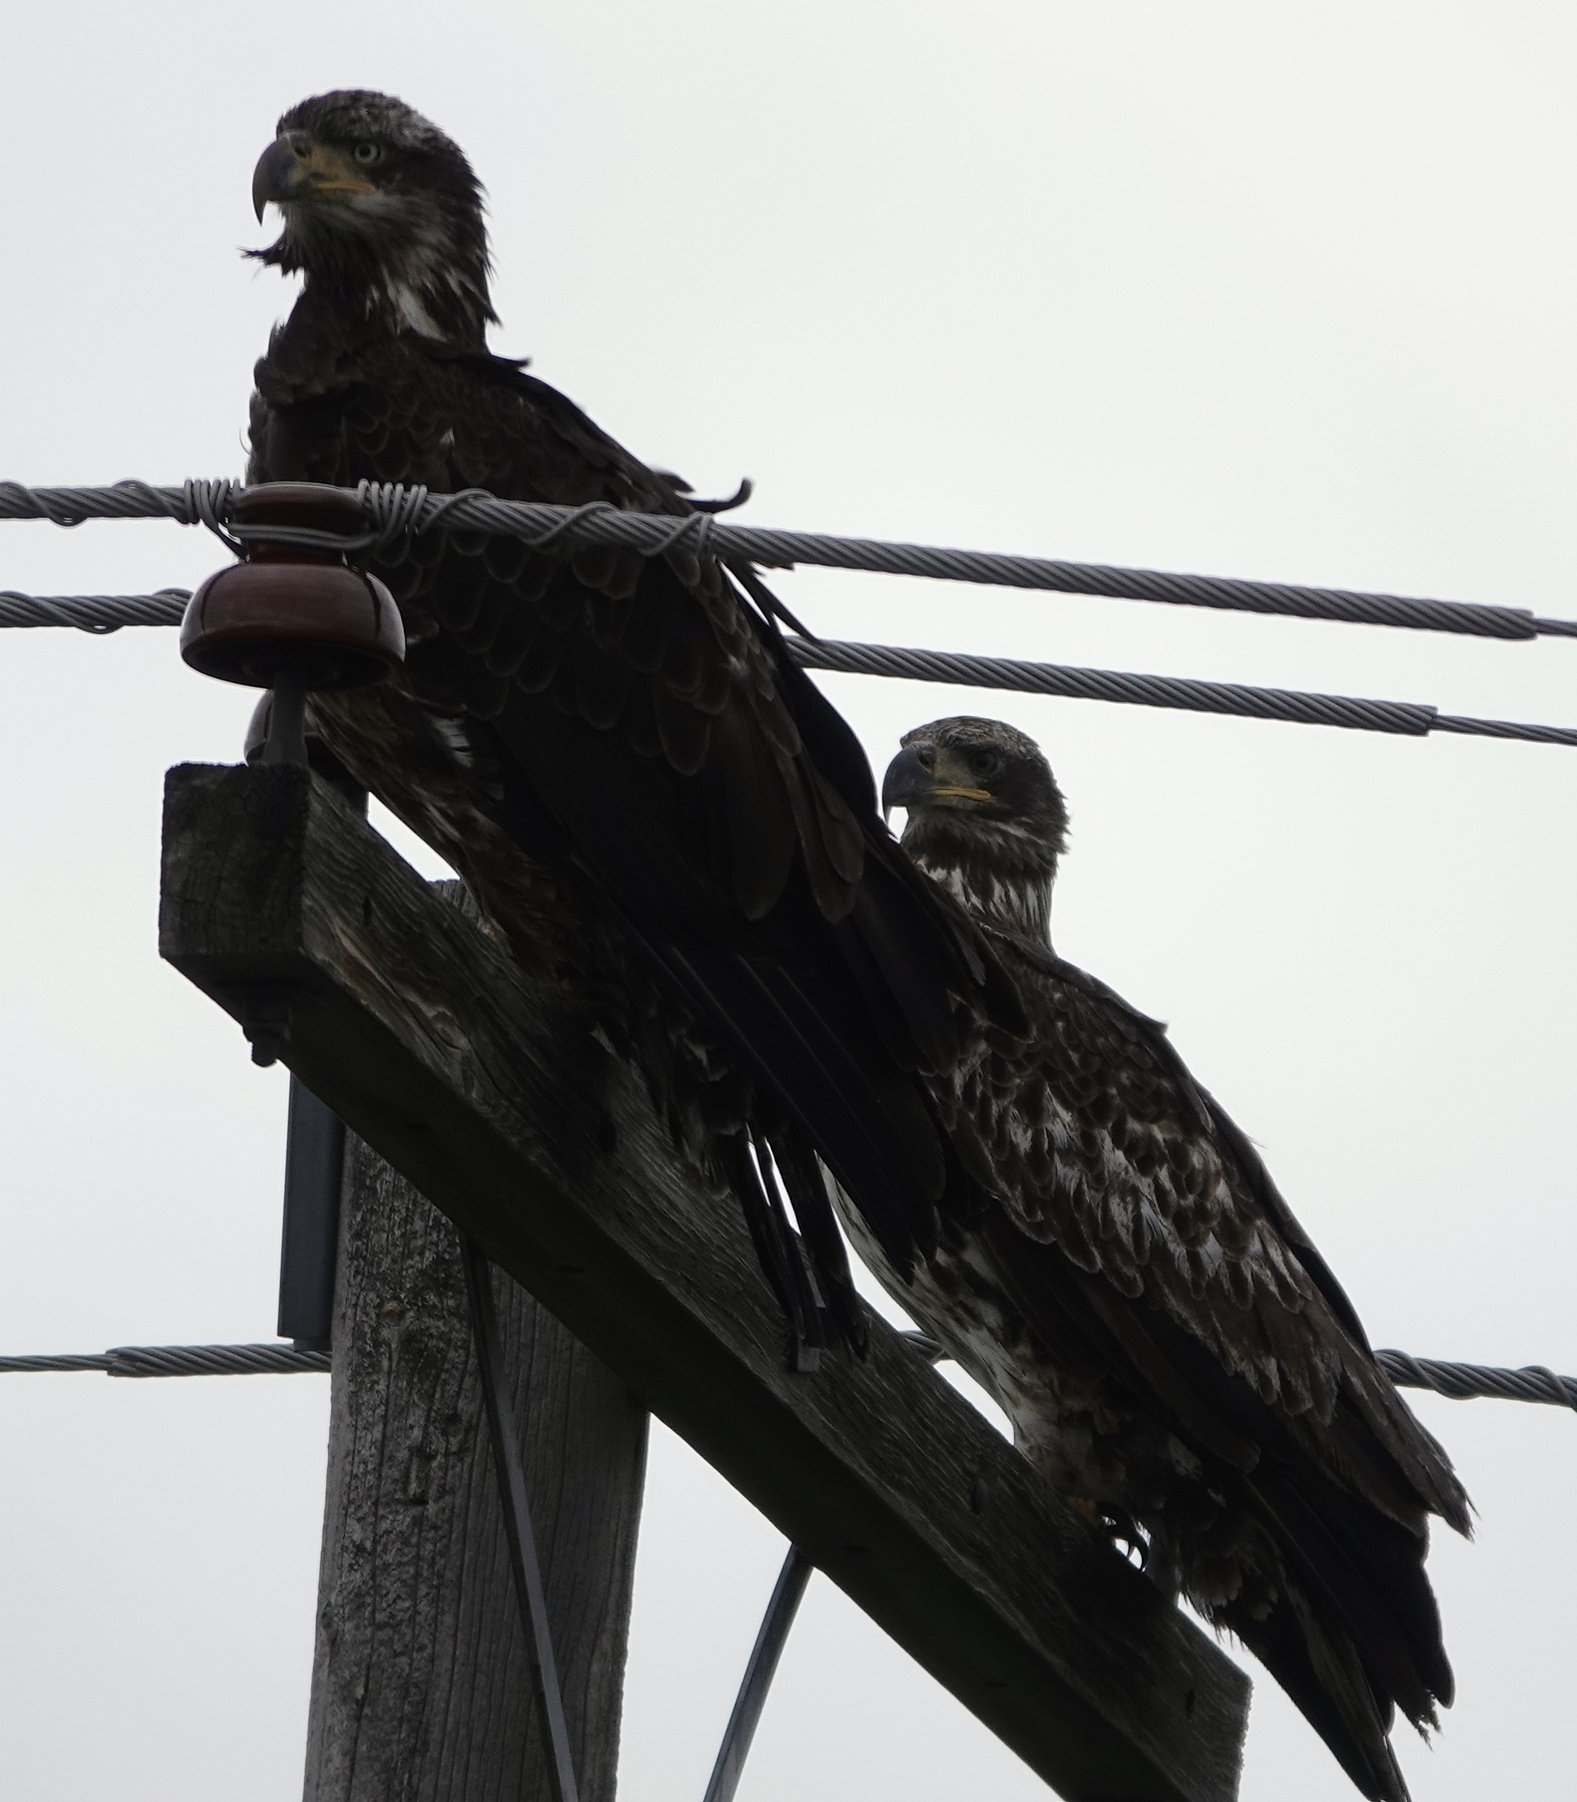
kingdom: Animalia
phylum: Chordata
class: Aves
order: Accipitriformes
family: Accipitridae
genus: Haliaeetus
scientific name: Haliaeetus leucocephalus
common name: Bald eagle
